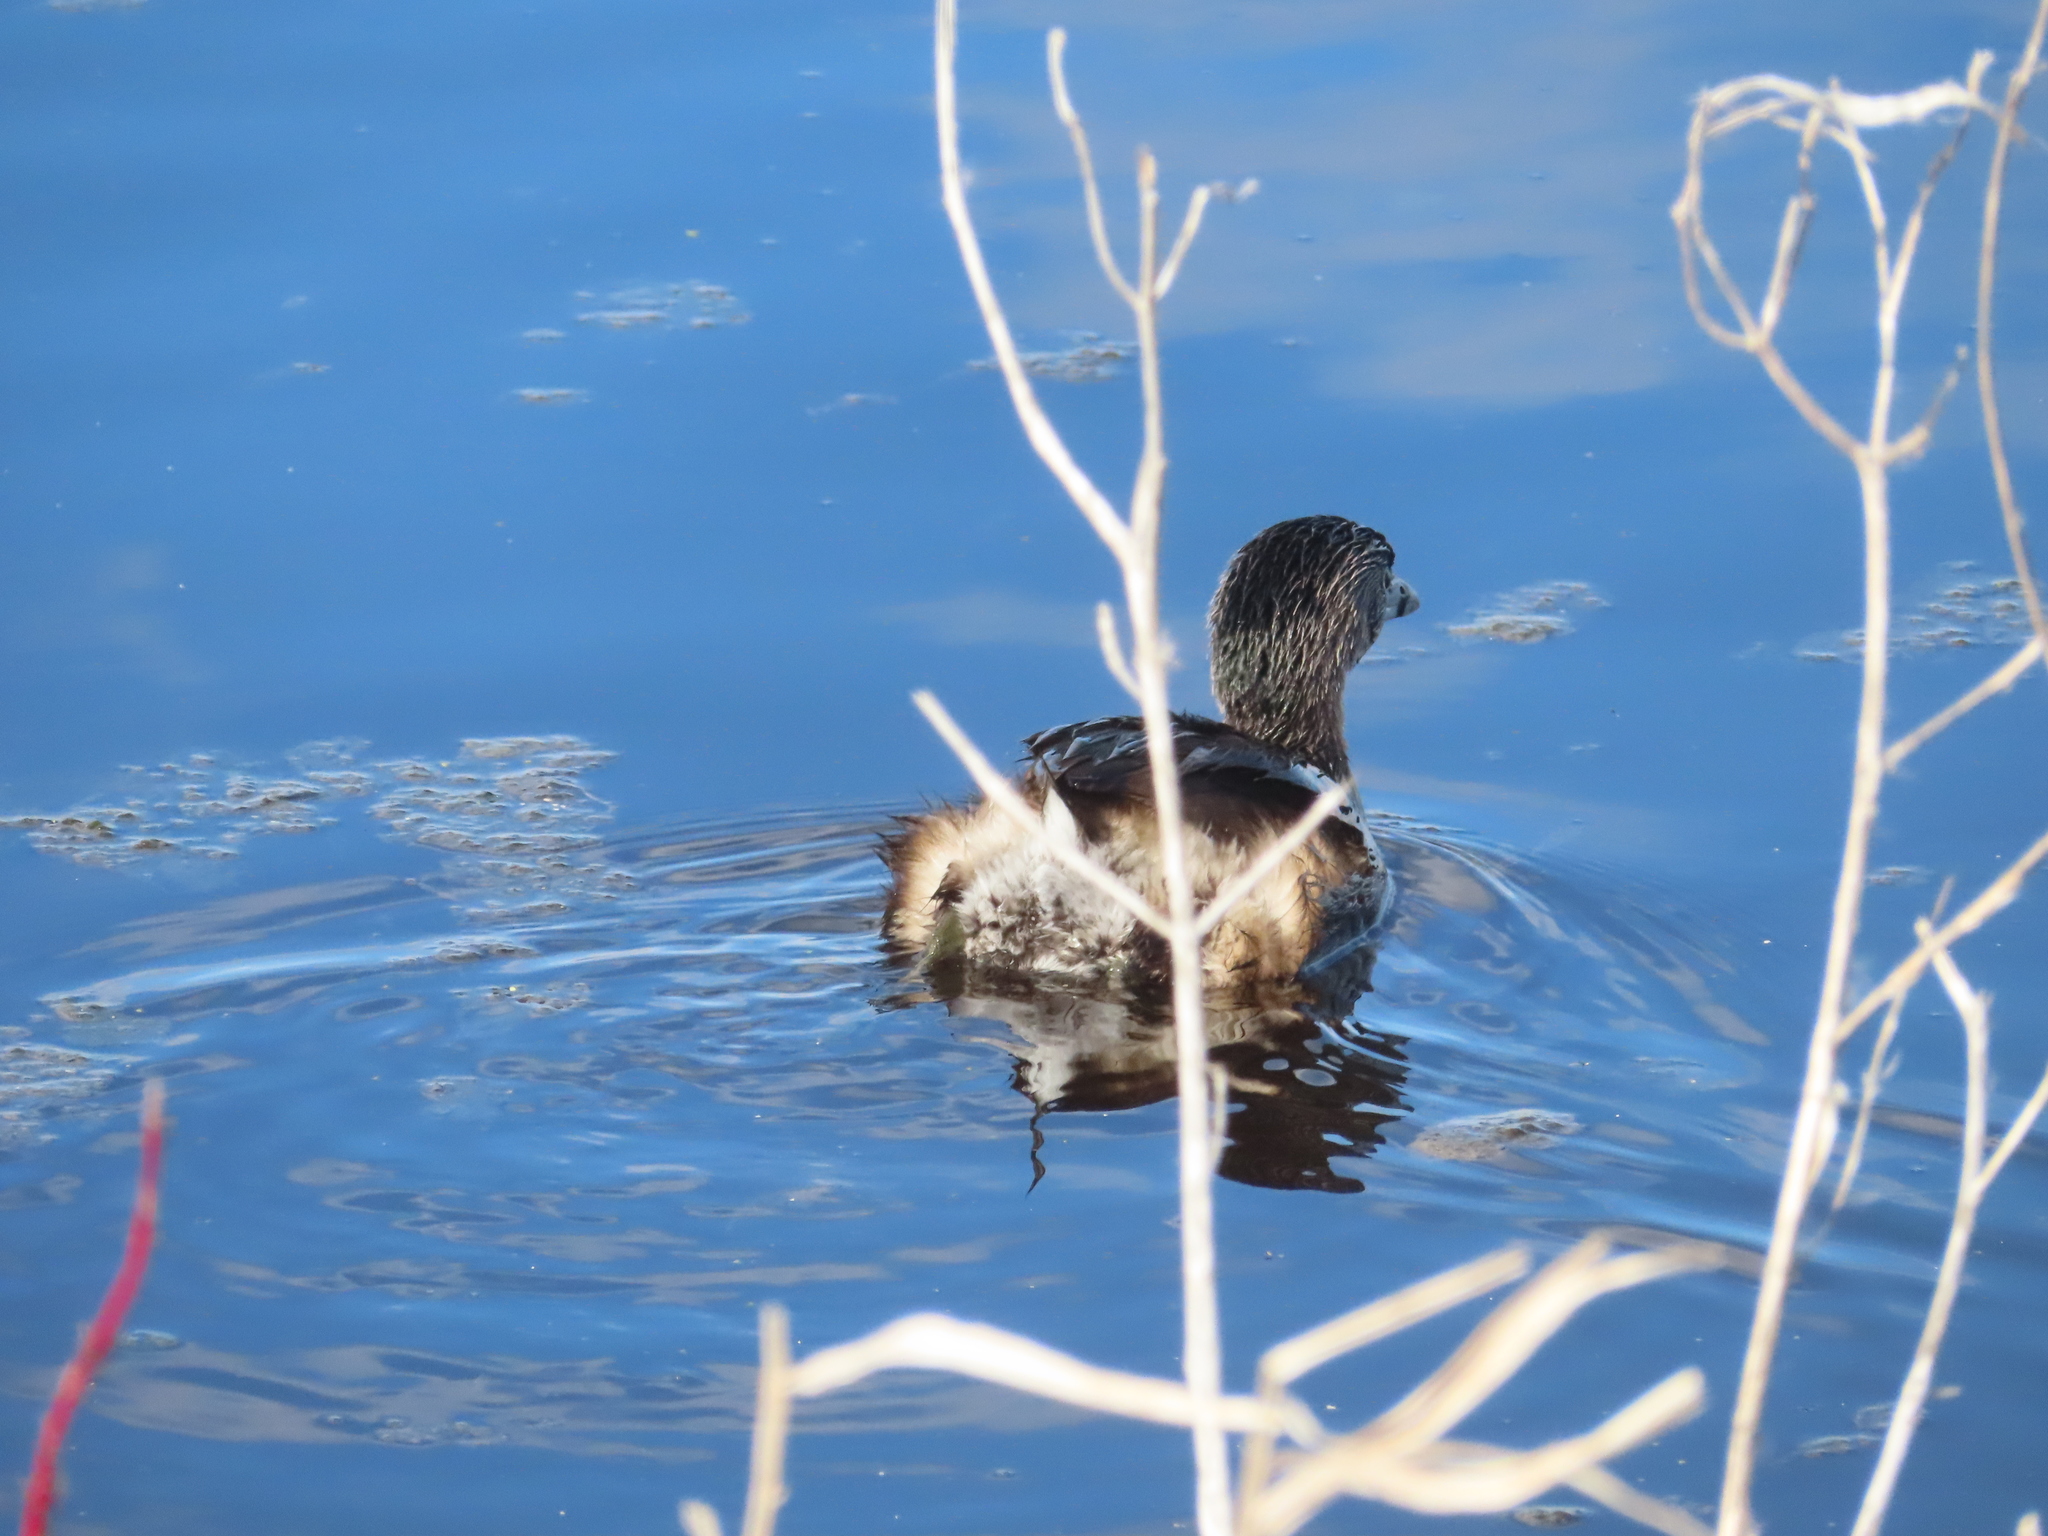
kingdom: Animalia
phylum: Chordata
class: Aves
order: Podicipediformes
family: Podicipedidae
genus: Podilymbus
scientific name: Podilymbus podiceps
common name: Pied-billed grebe
